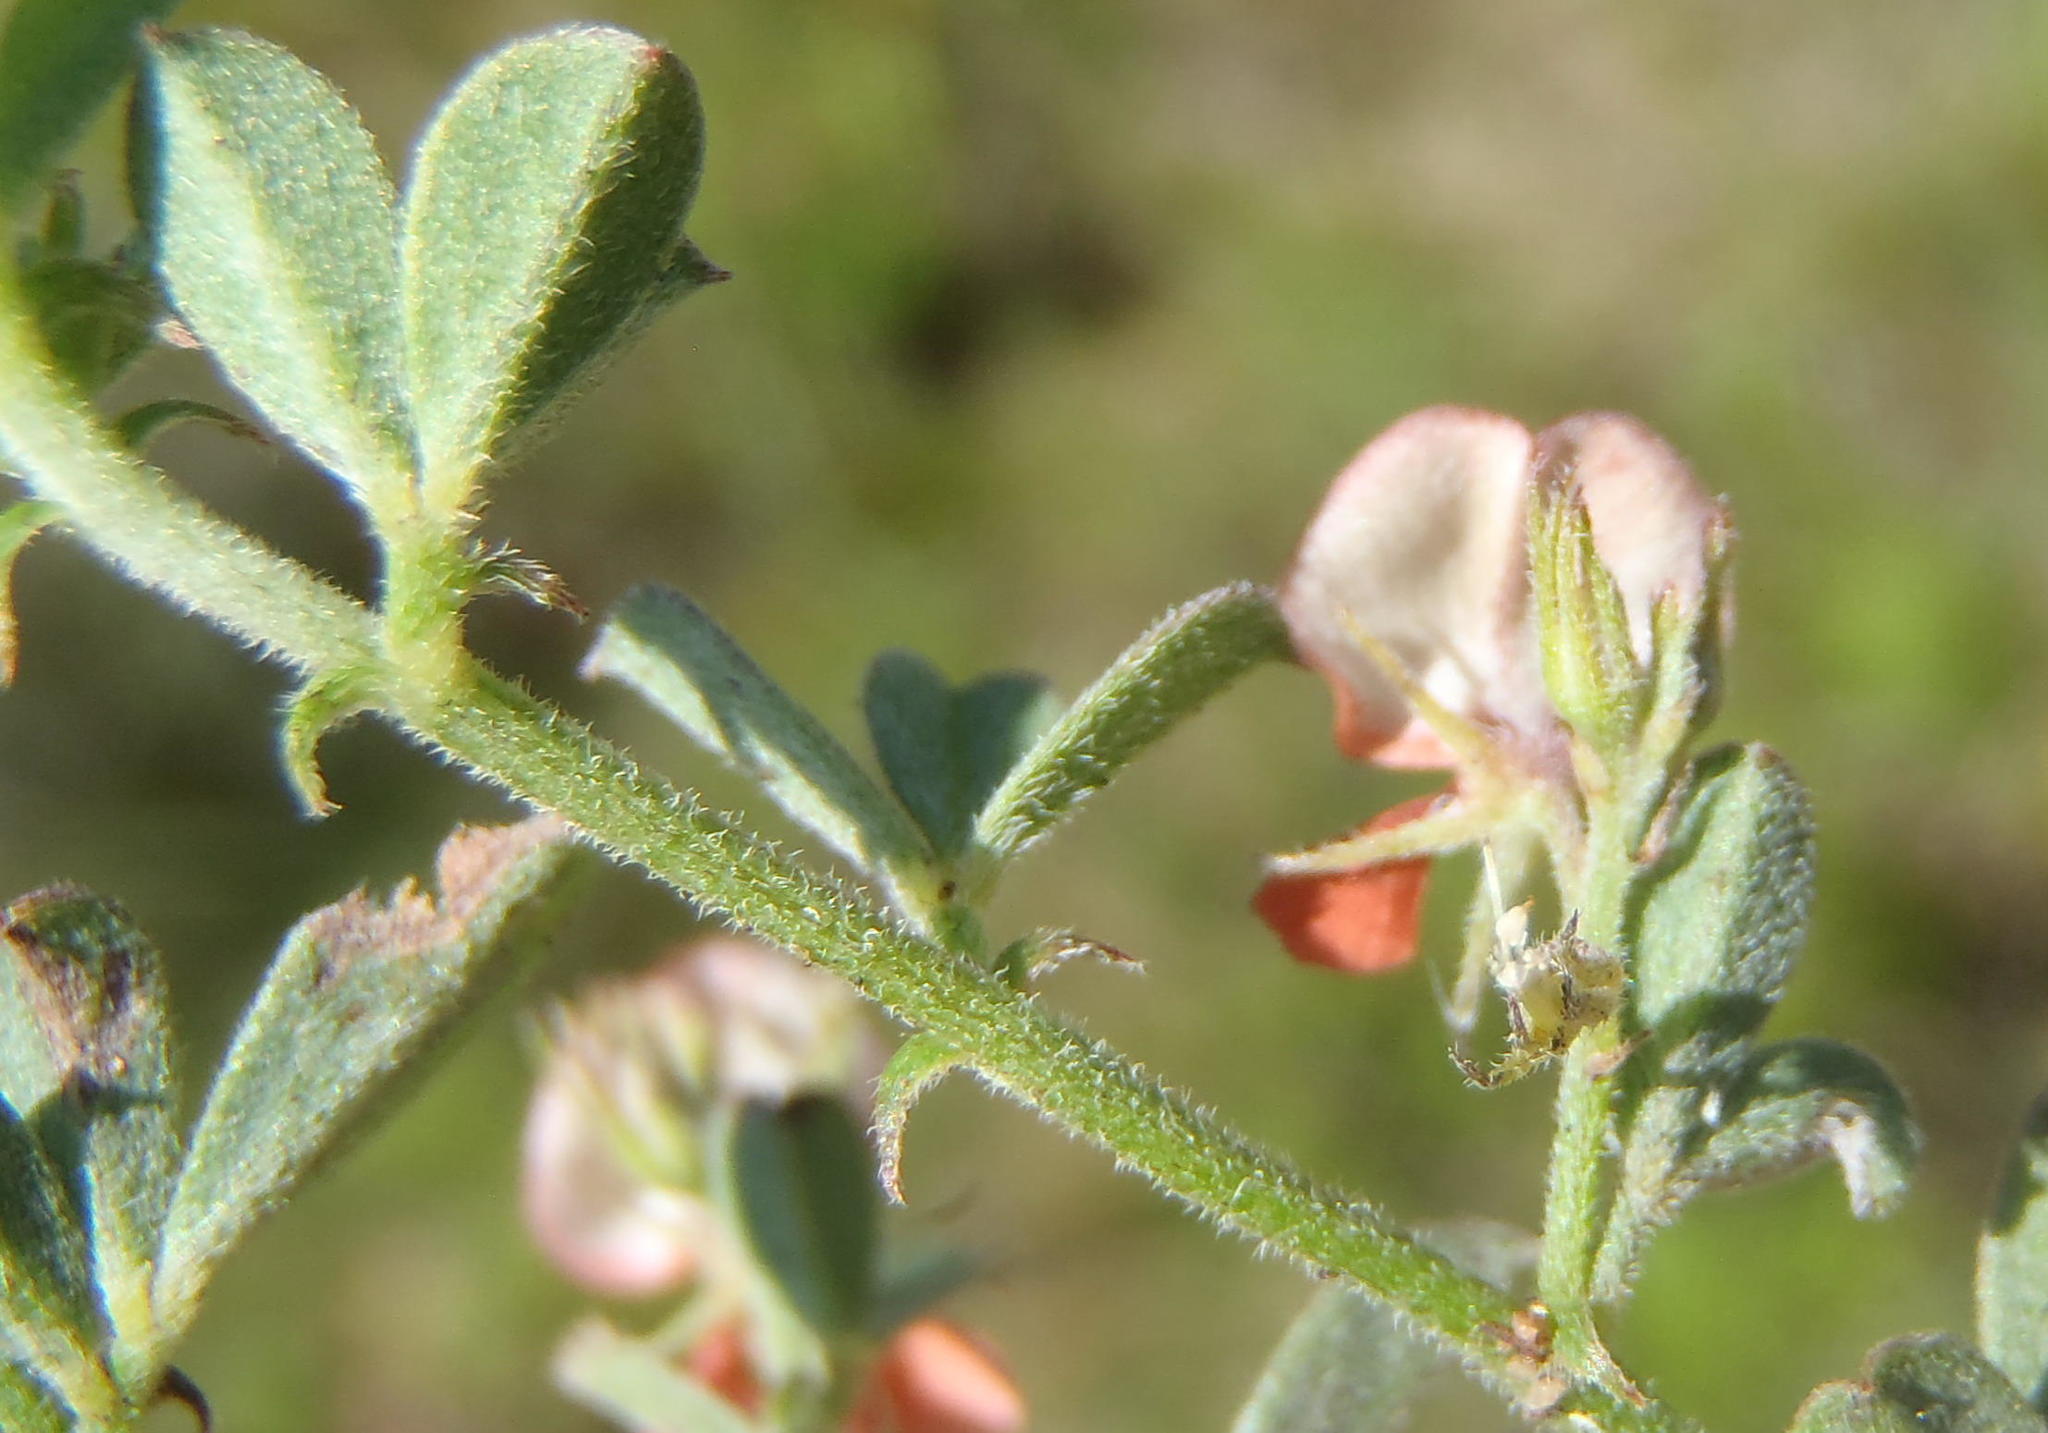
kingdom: Plantae
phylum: Tracheophyta
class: Magnoliopsida
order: Fabales
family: Fabaceae
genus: Indigofera
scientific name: Indigofera priorii
